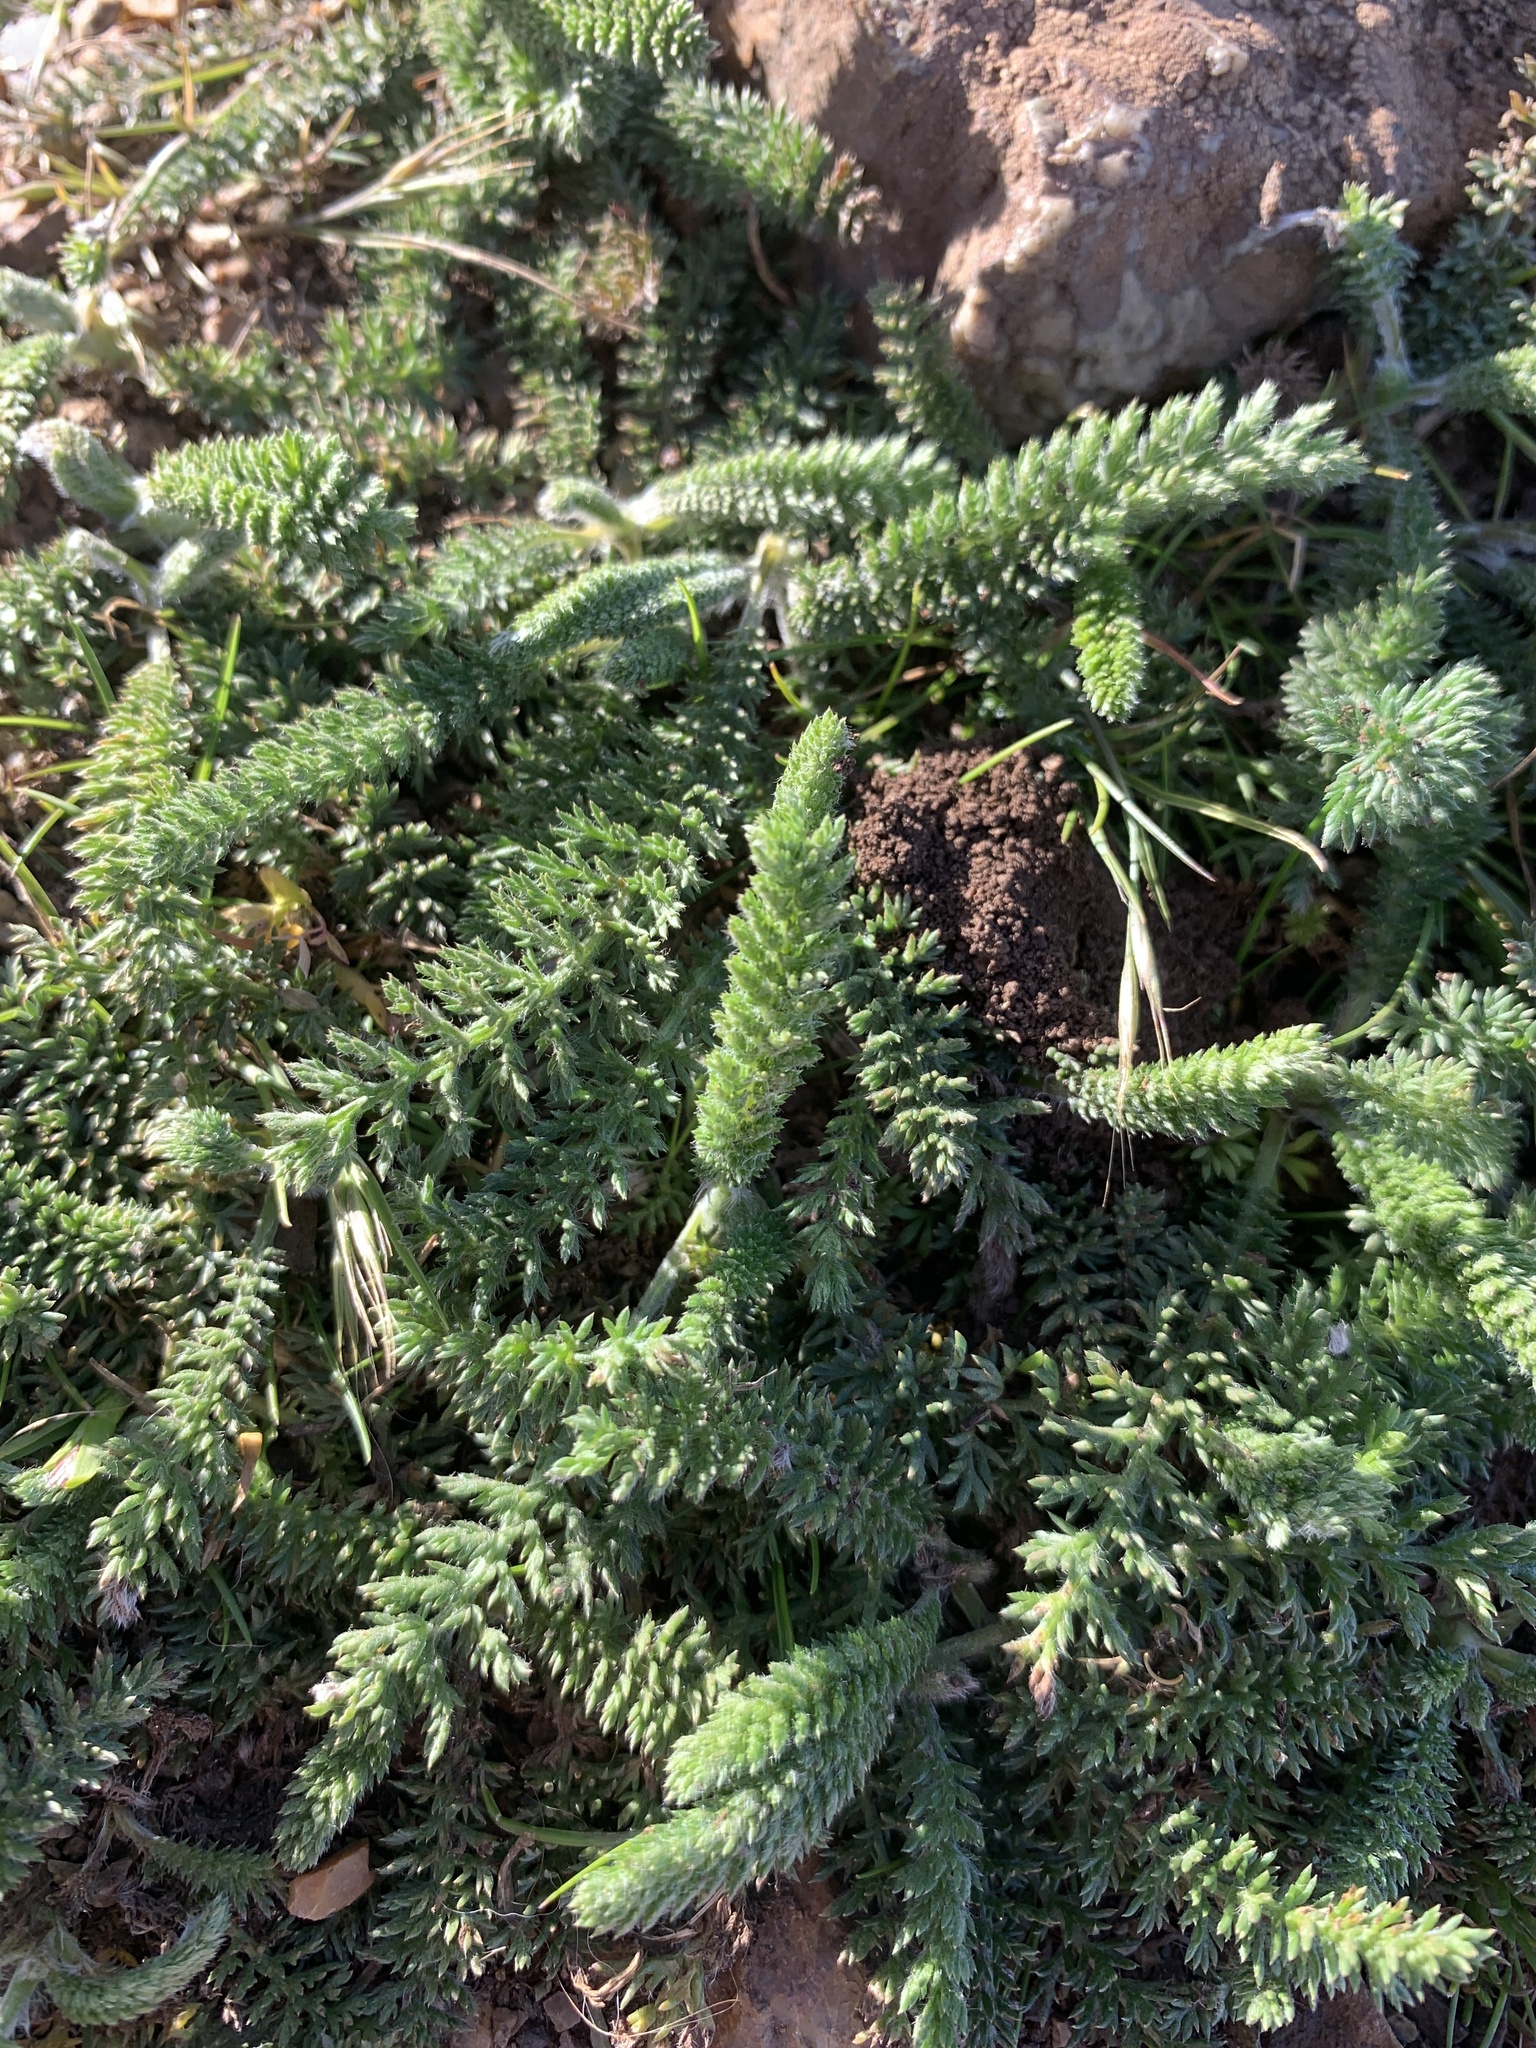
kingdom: Plantae
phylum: Tracheophyta
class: Magnoliopsida
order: Asterales
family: Asteraceae
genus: Achillea
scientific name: Achillea millefolium
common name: Yarrow
